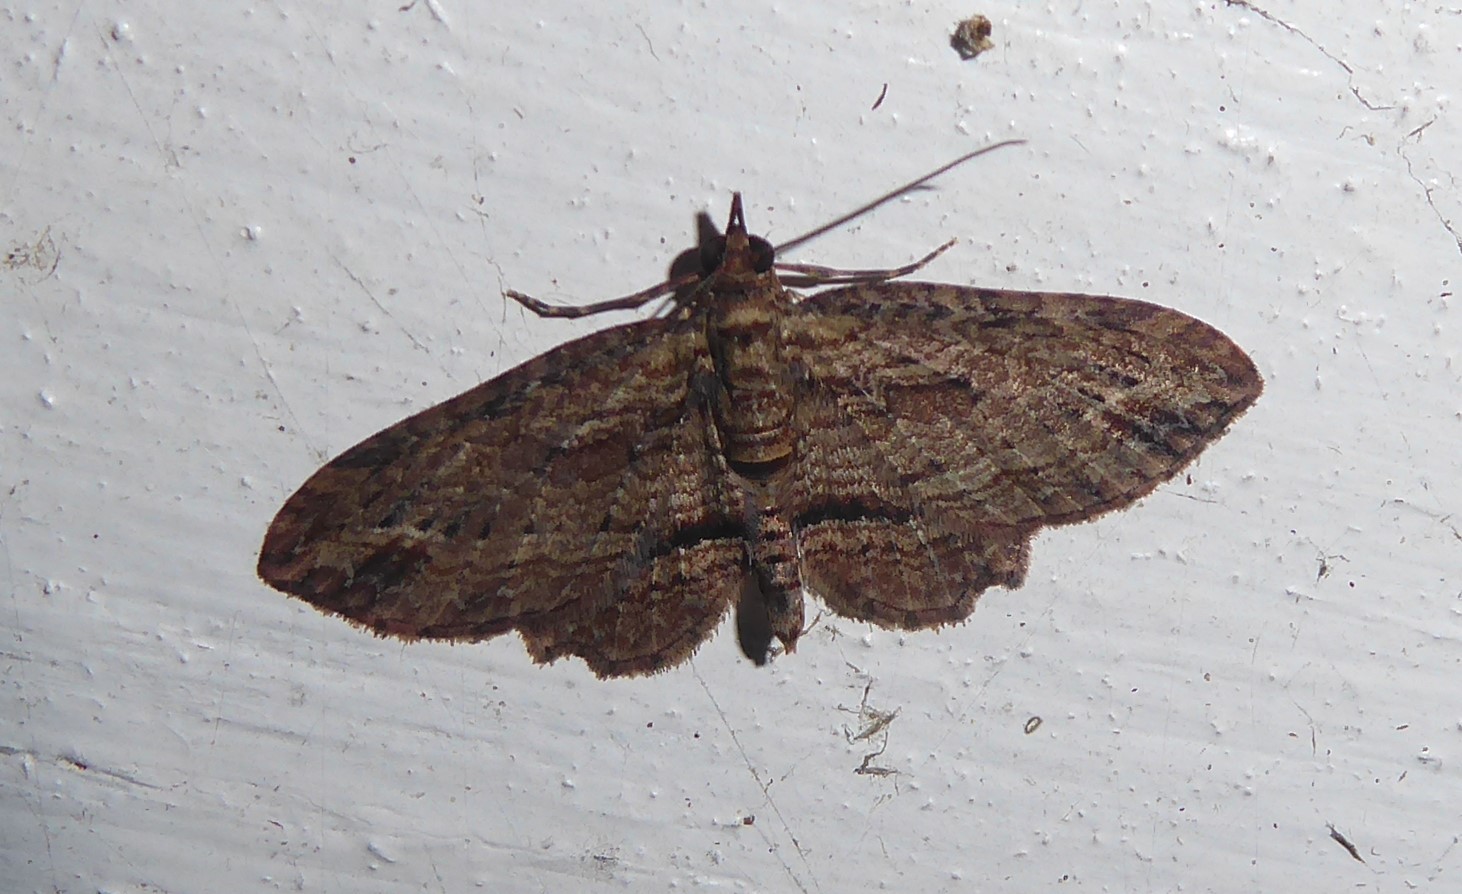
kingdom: Animalia
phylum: Arthropoda
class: Insecta
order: Lepidoptera
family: Geometridae
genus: Chloroclystis
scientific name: Chloroclystis filata
